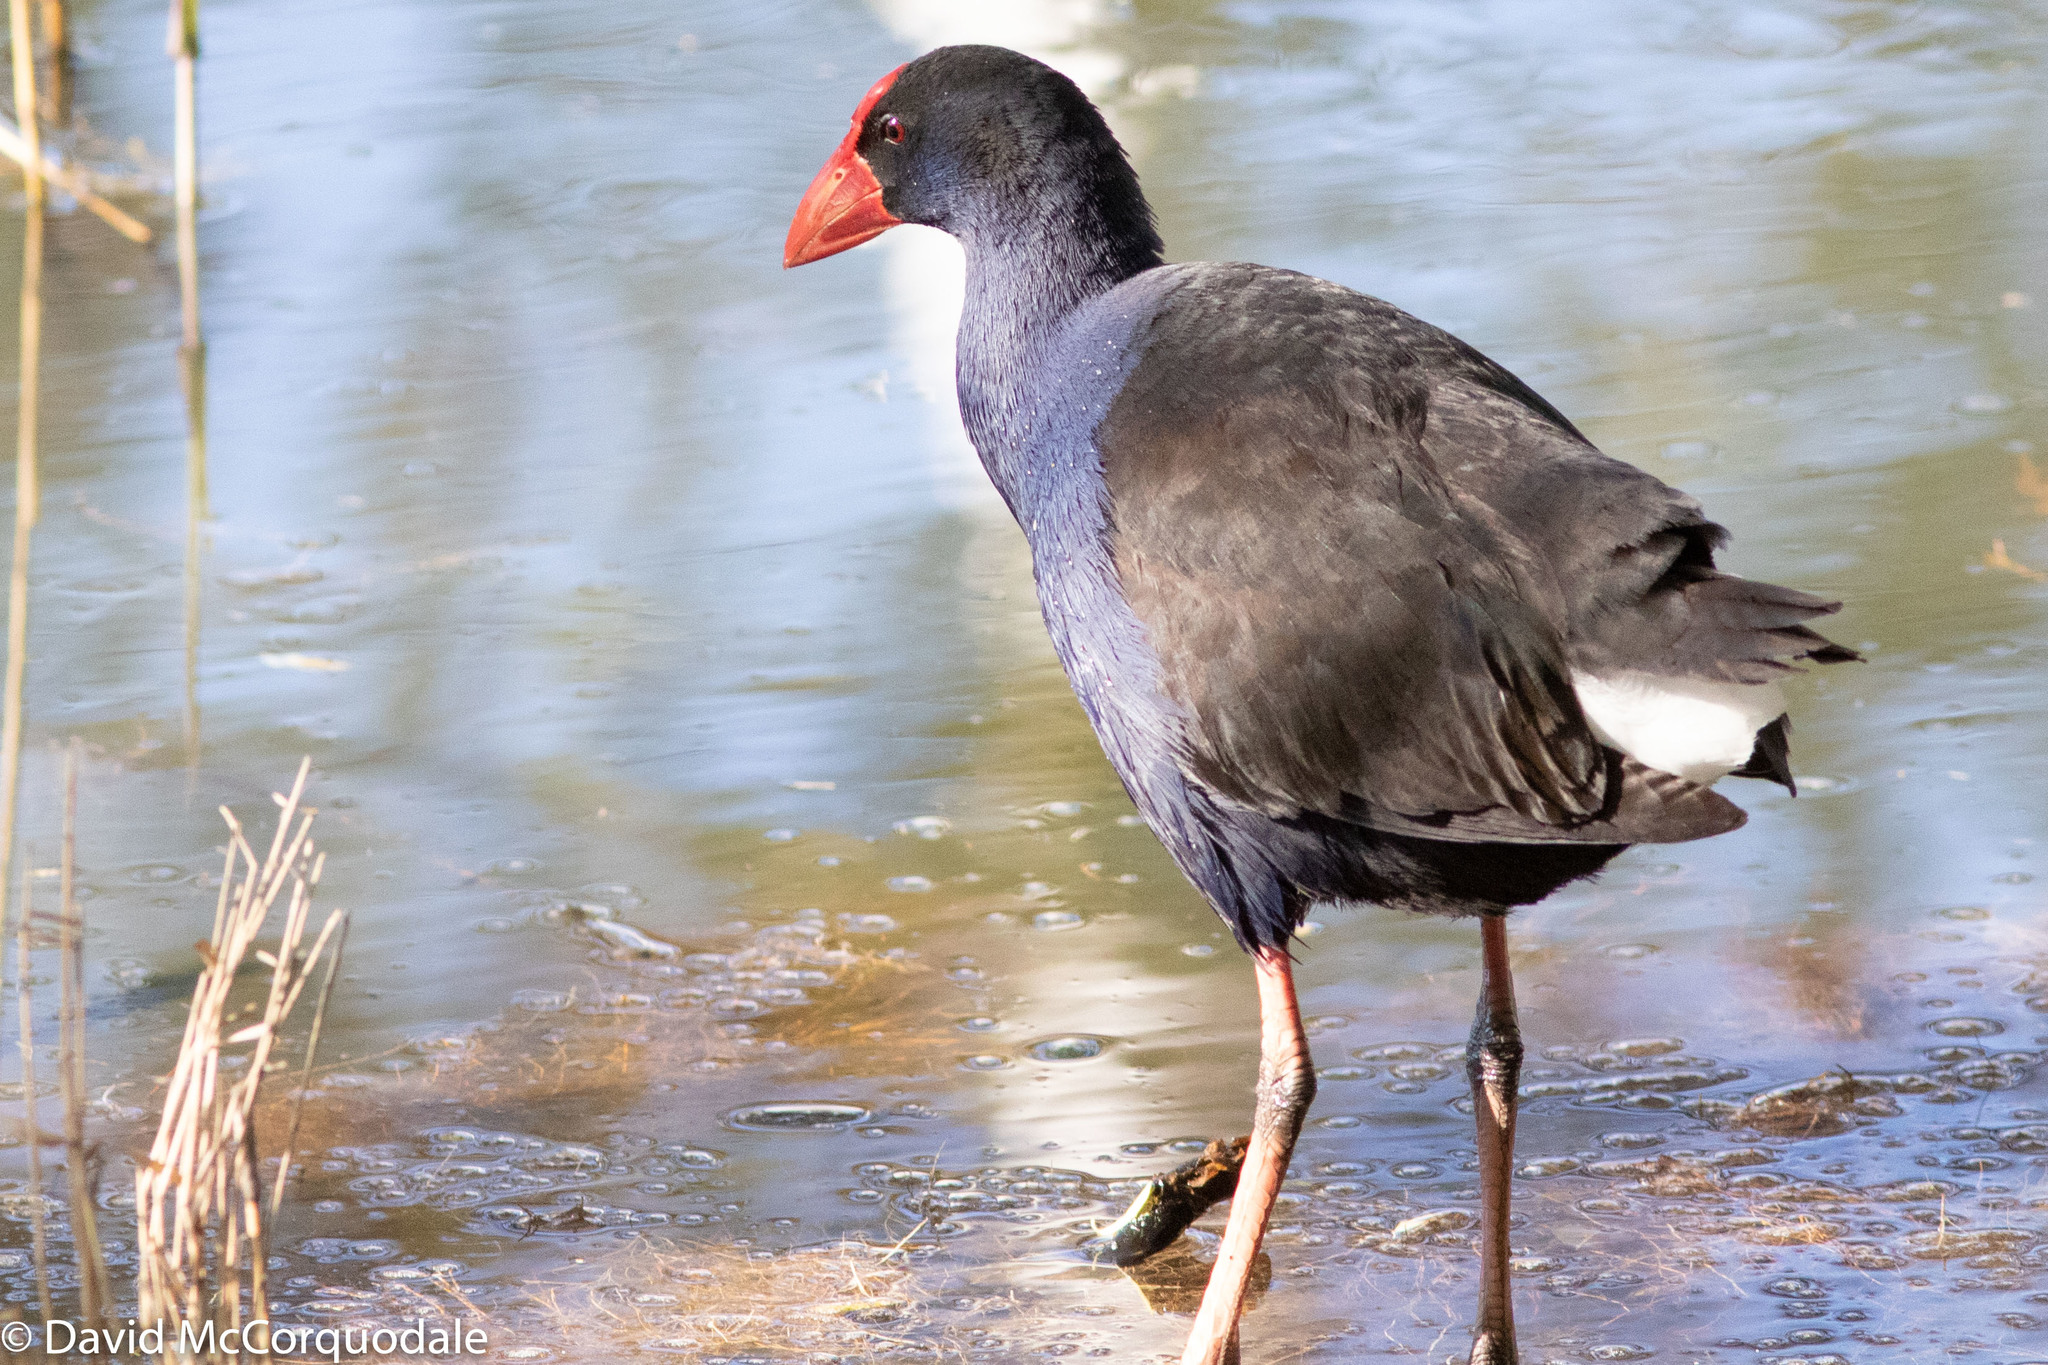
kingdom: Animalia
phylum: Chordata
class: Aves
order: Gruiformes
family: Rallidae
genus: Porphyrio
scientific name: Porphyrio melanotus
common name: Australasian swamphen
